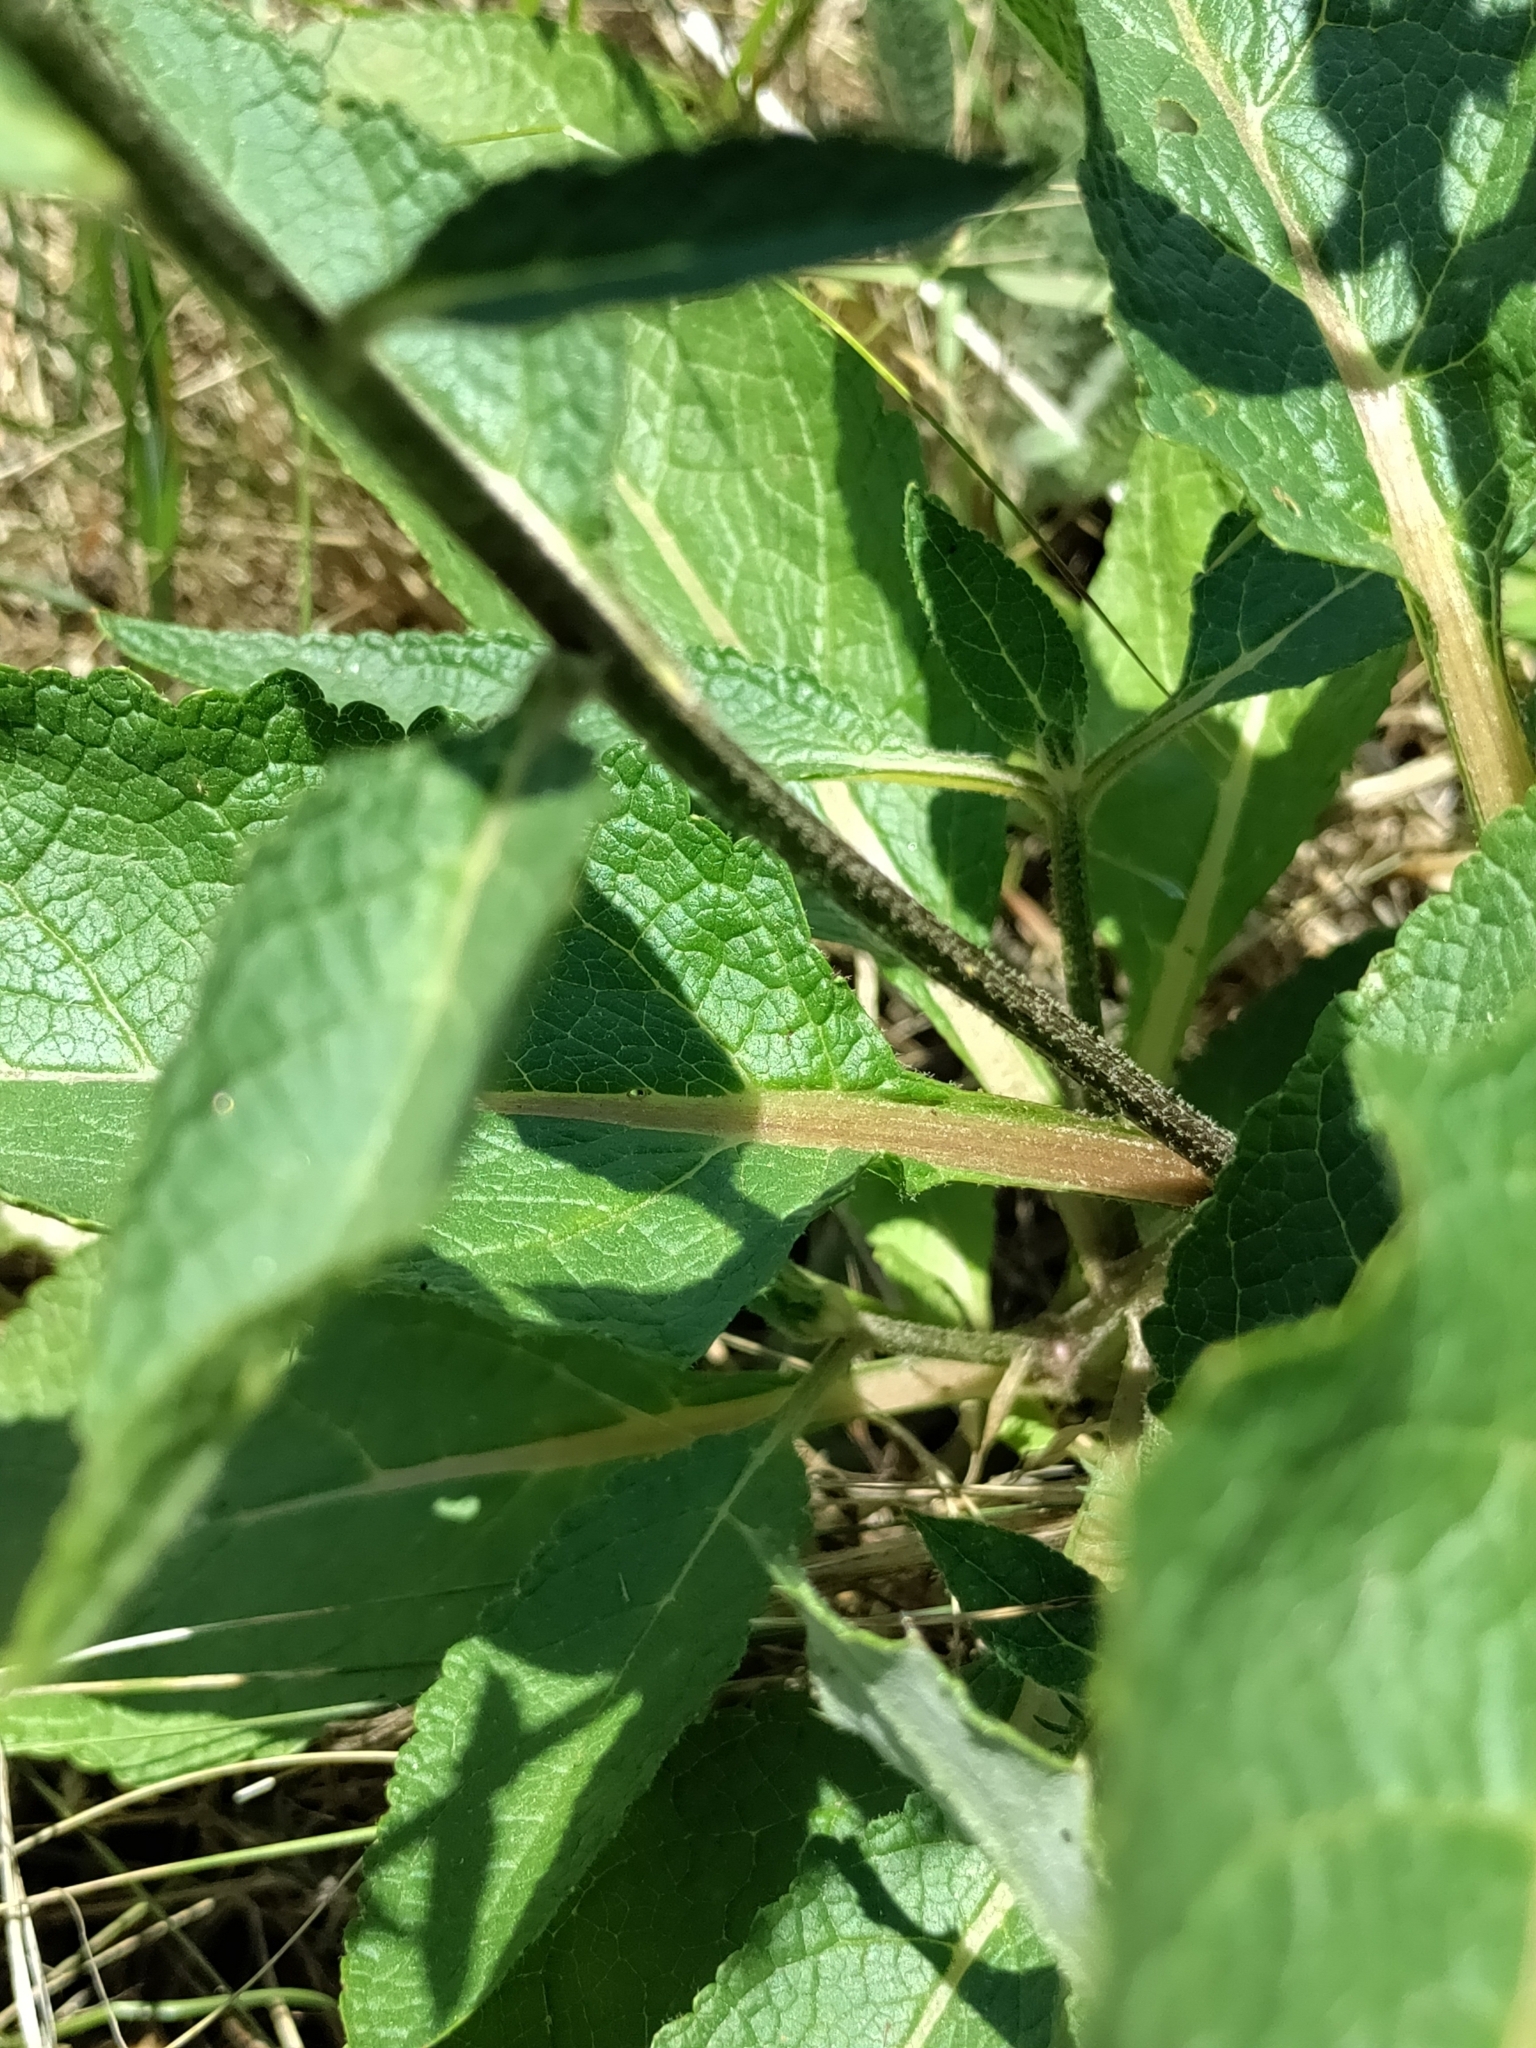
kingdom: Plantae
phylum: Tracheophyta
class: Magnoliopsida
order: Lamiales
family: Scrophulariaceae
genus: Verbascum
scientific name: Verbascum chaixii
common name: Nettle-leaved mullein
